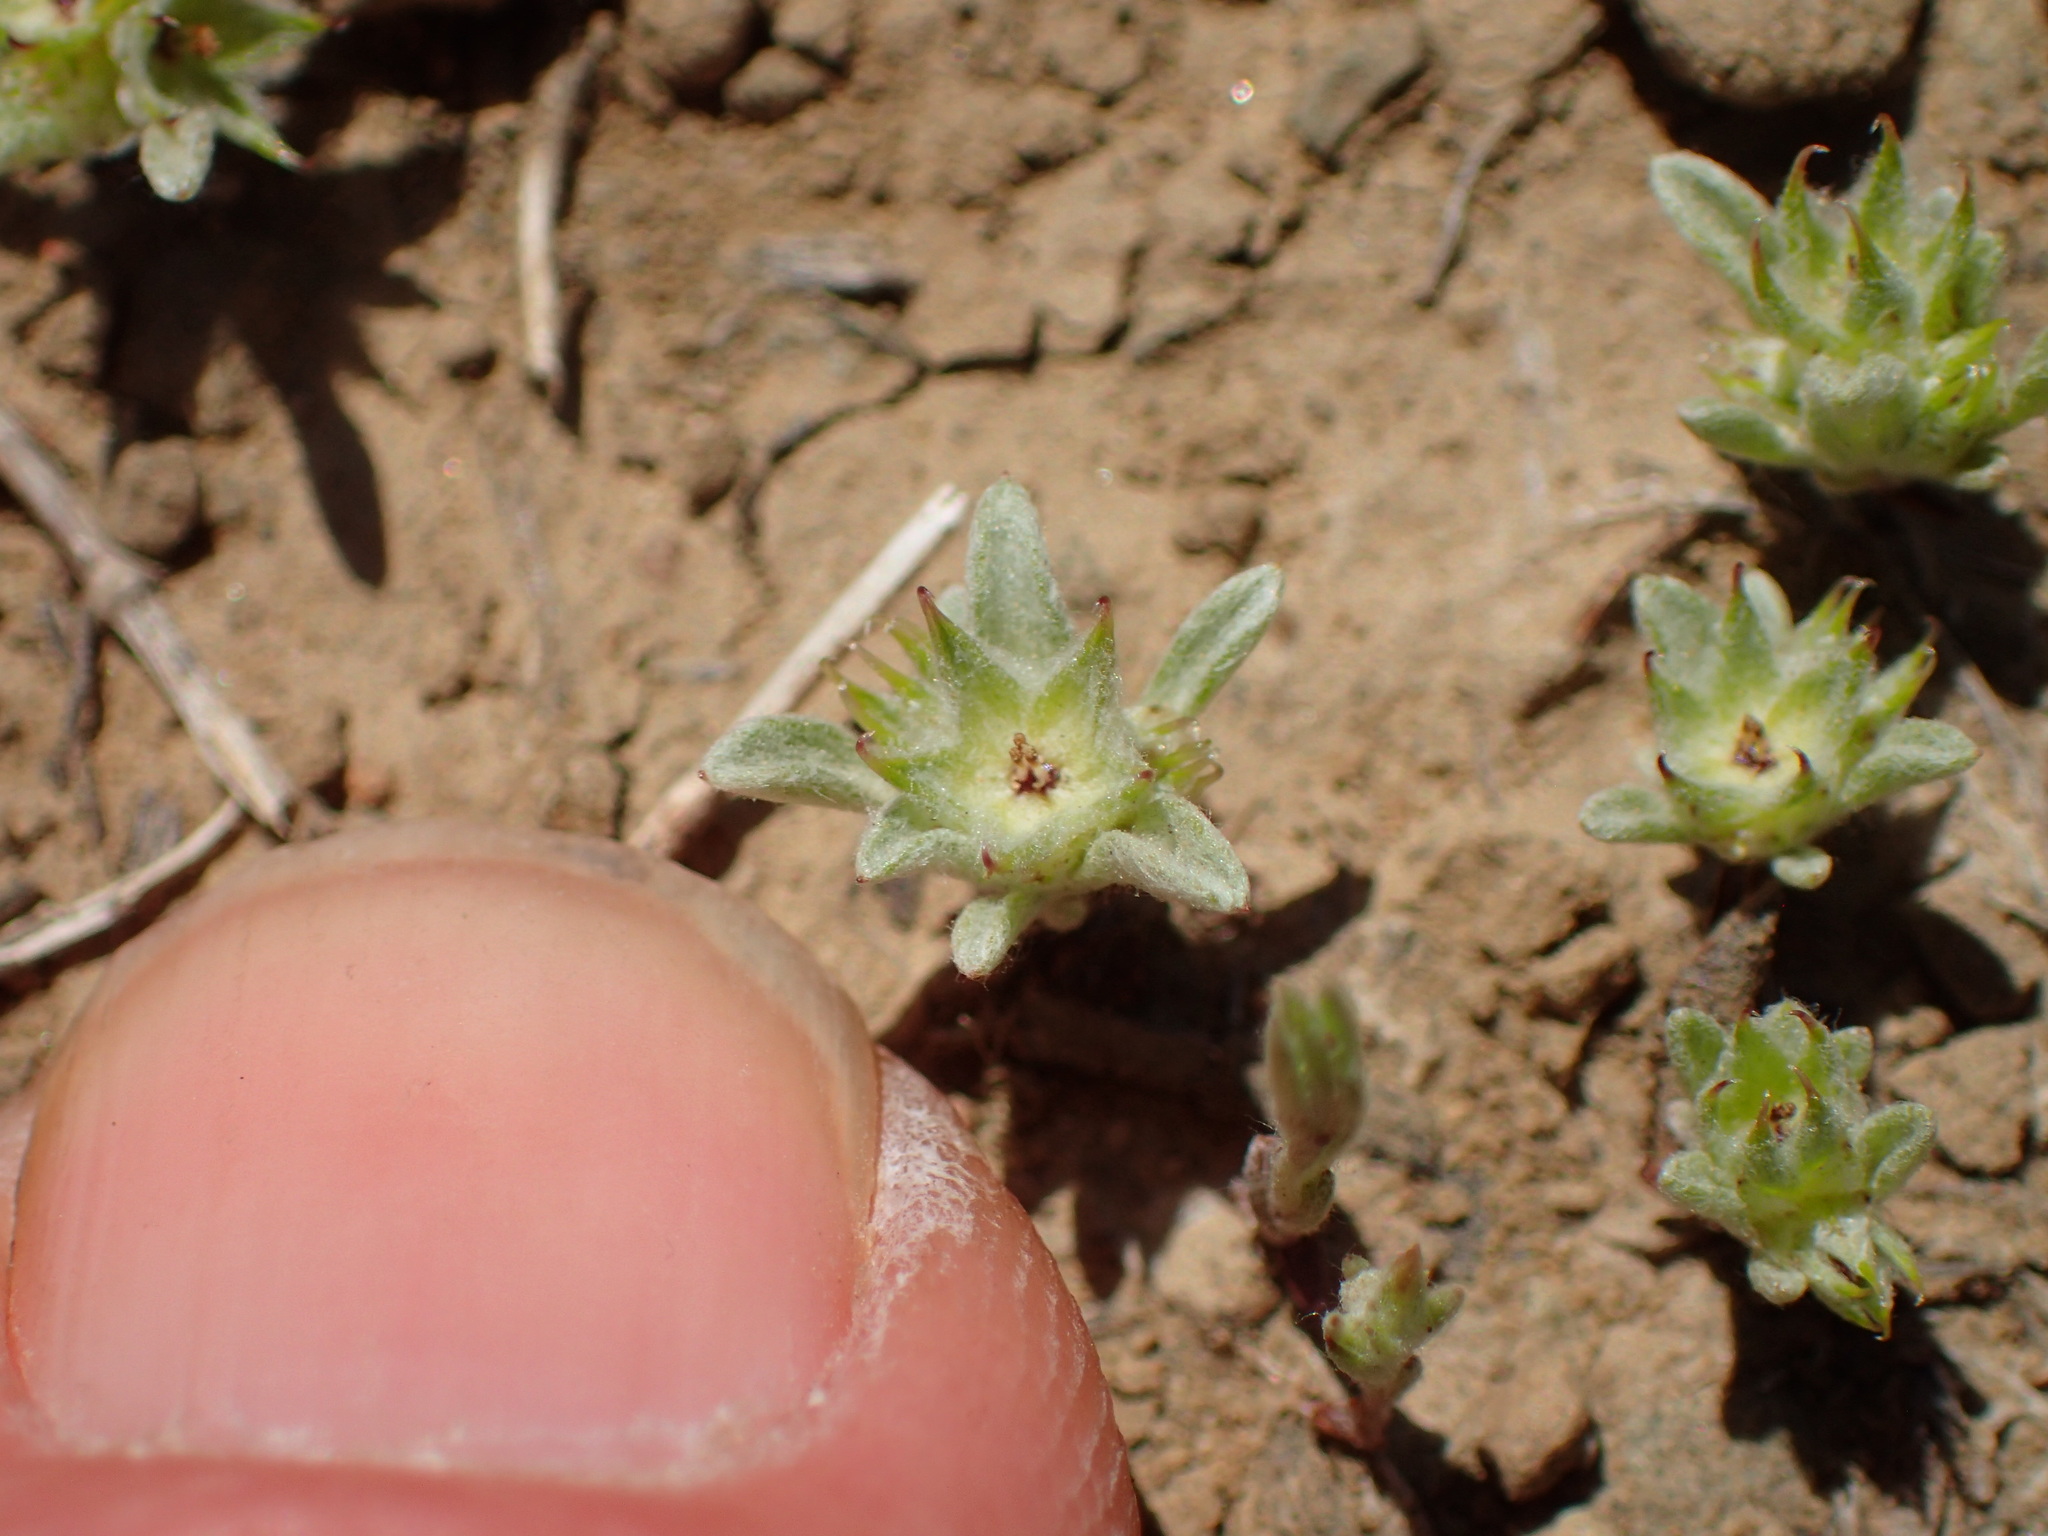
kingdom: Plantae
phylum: Tracheophyta
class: Magnoliopsida
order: Asterales
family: Asteraceae
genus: Ancistrocarphus
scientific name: Ancistrocarphus filagineus
